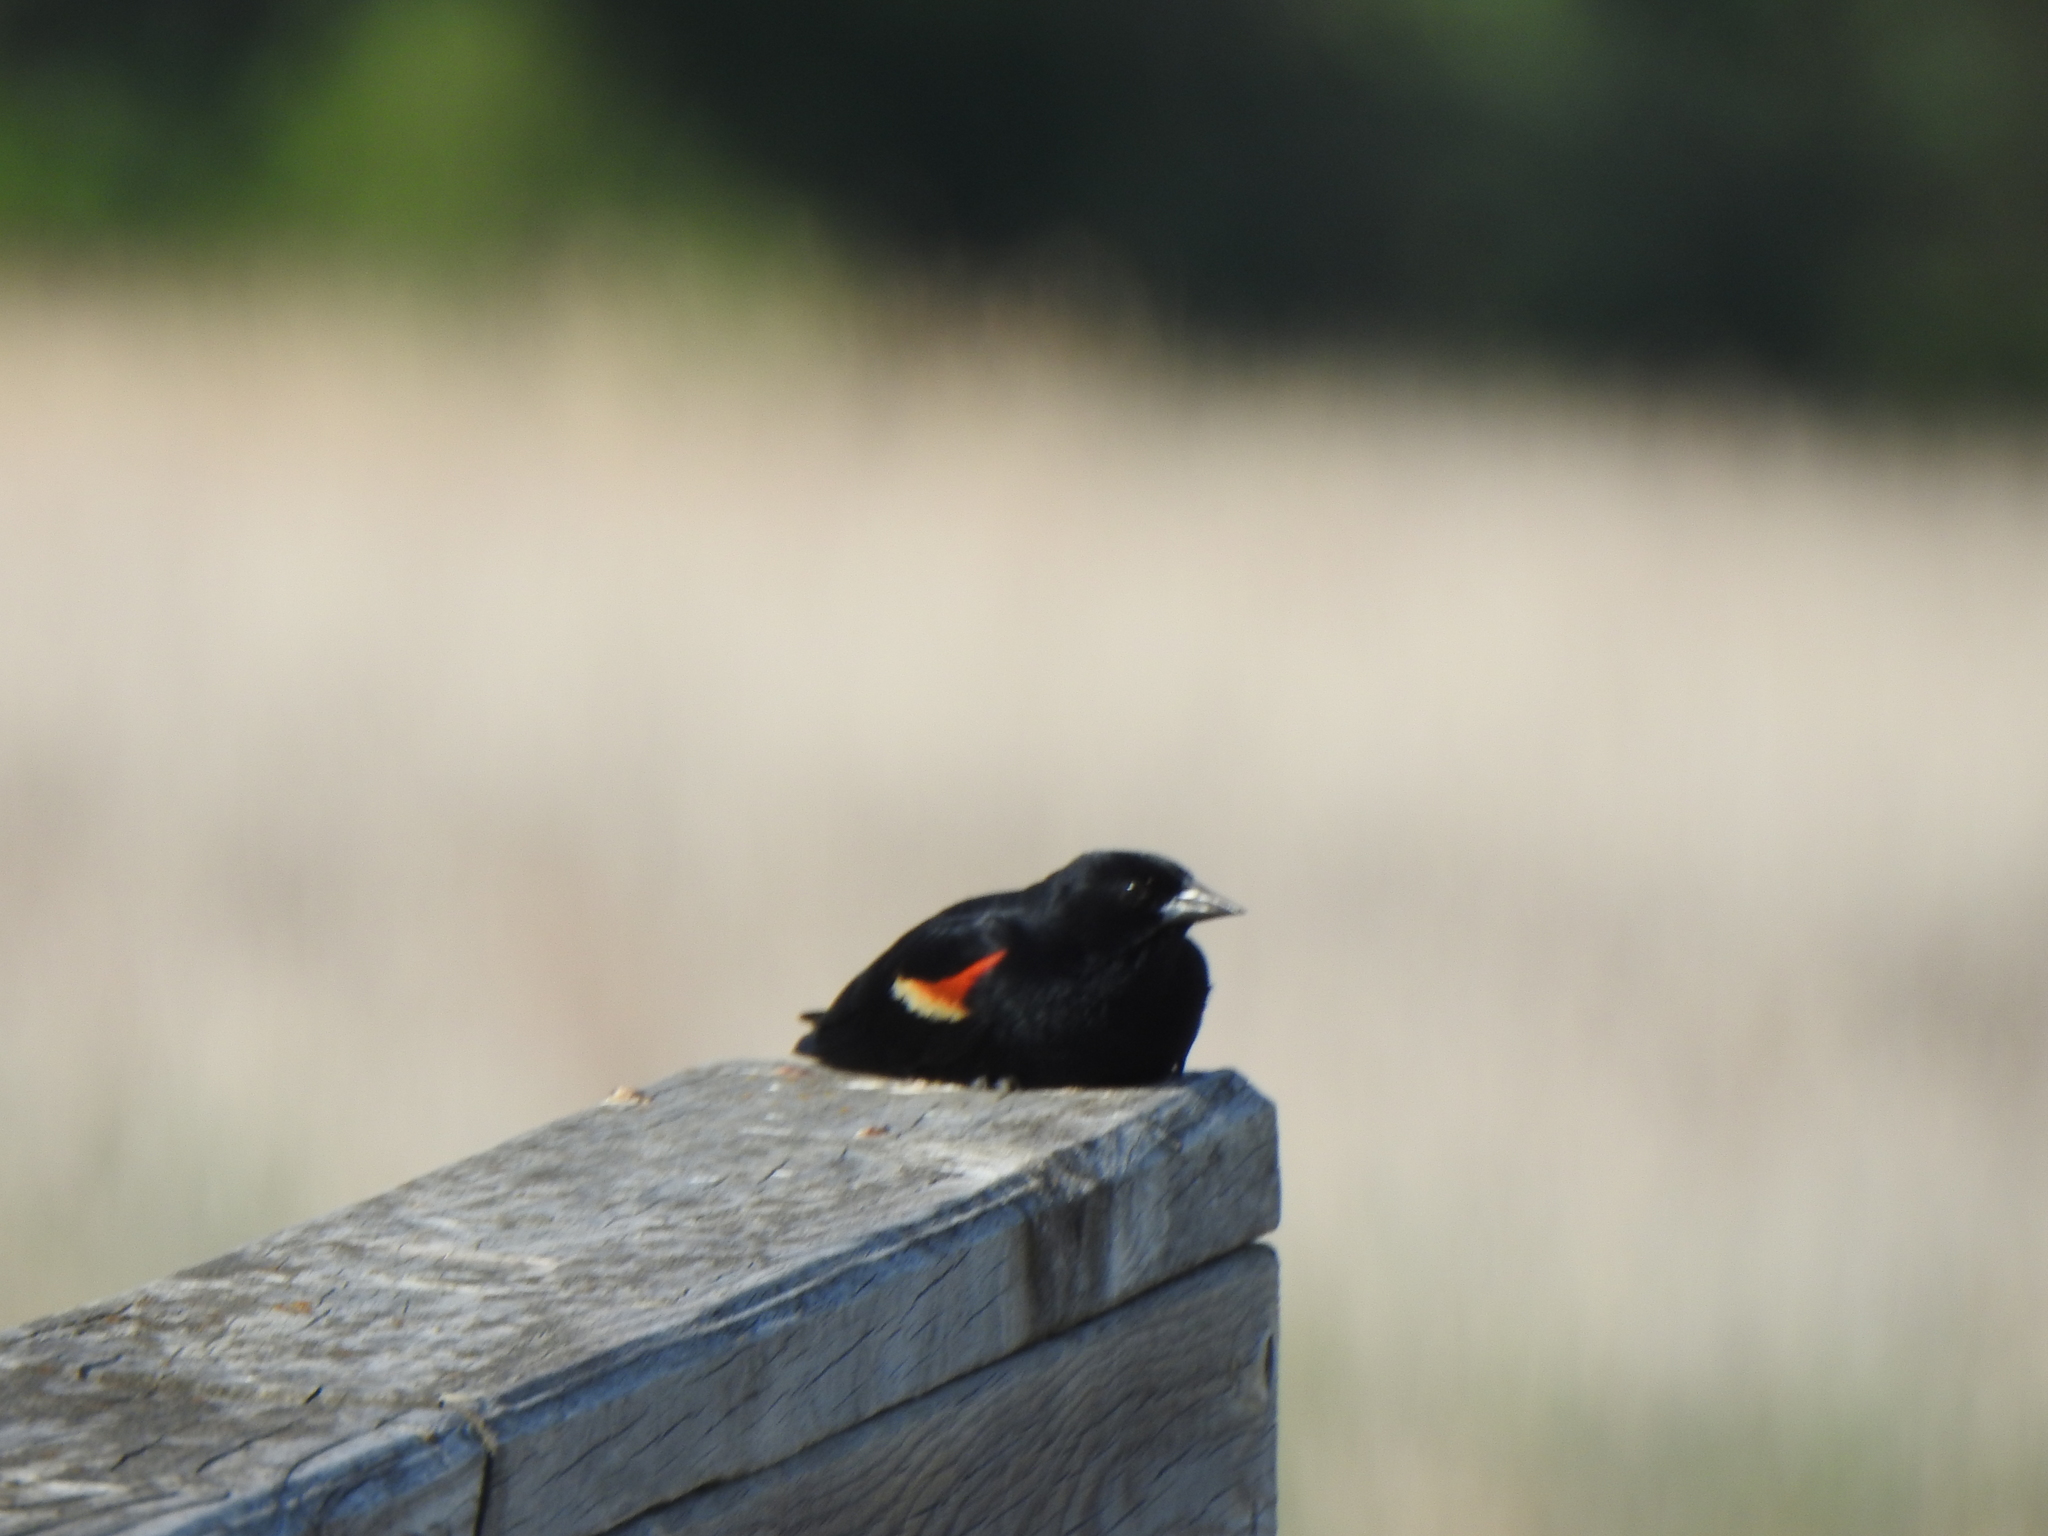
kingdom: Animalia
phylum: Chordata
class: Aves
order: Passeriformes
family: Icteridae
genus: Agelaius
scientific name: Agelaius phoeniceus
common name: Red-winged blackbird
